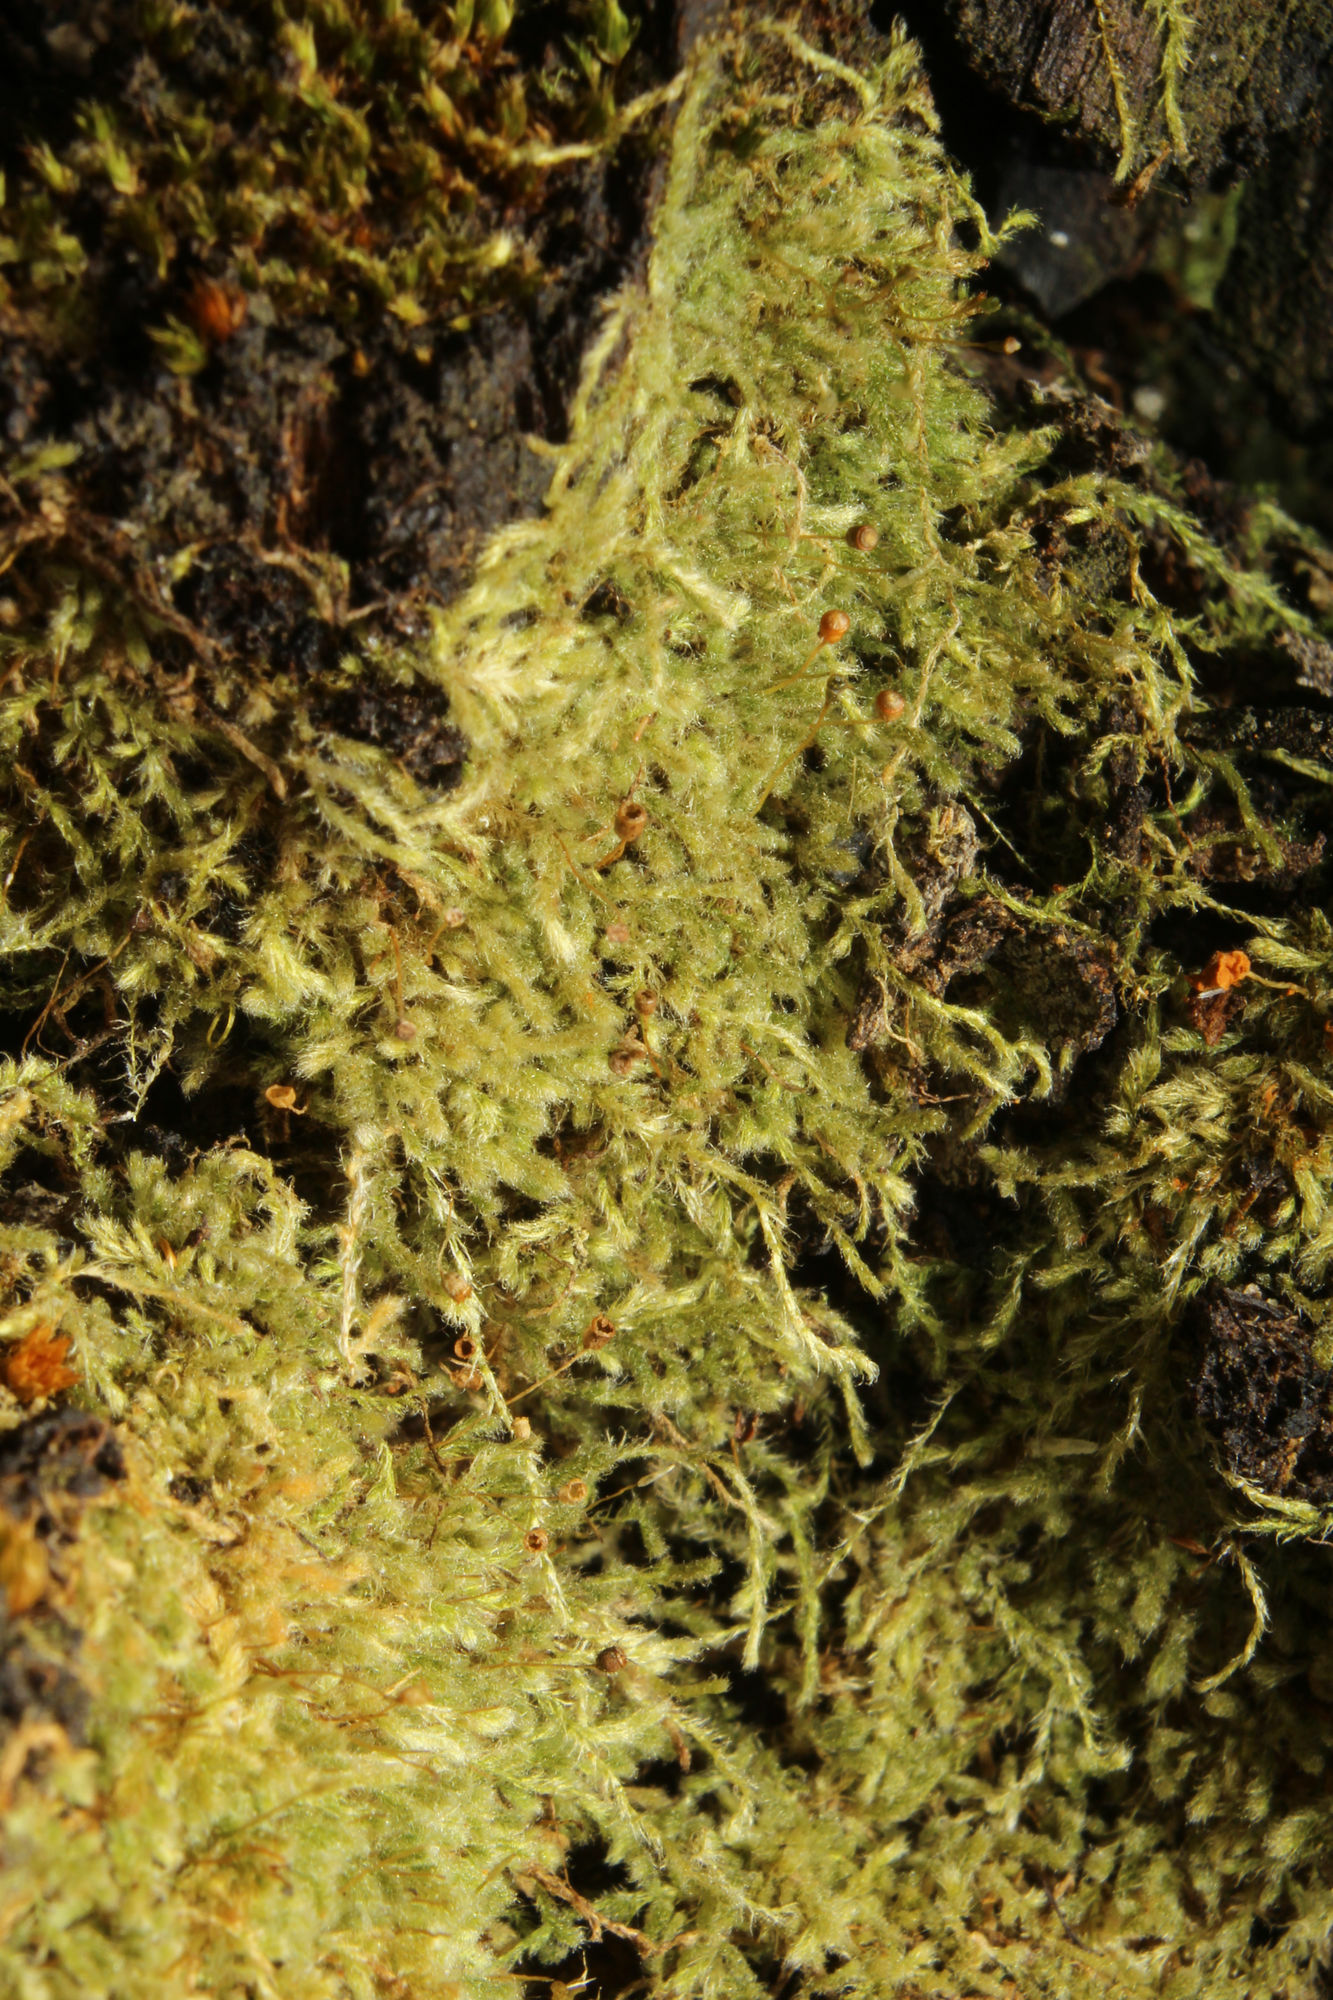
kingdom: Plantae
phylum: Bryophyta
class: Bryopsida
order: Hypnales
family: Fabroniaceae
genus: Fabronia
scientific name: Fabronia hampeana
